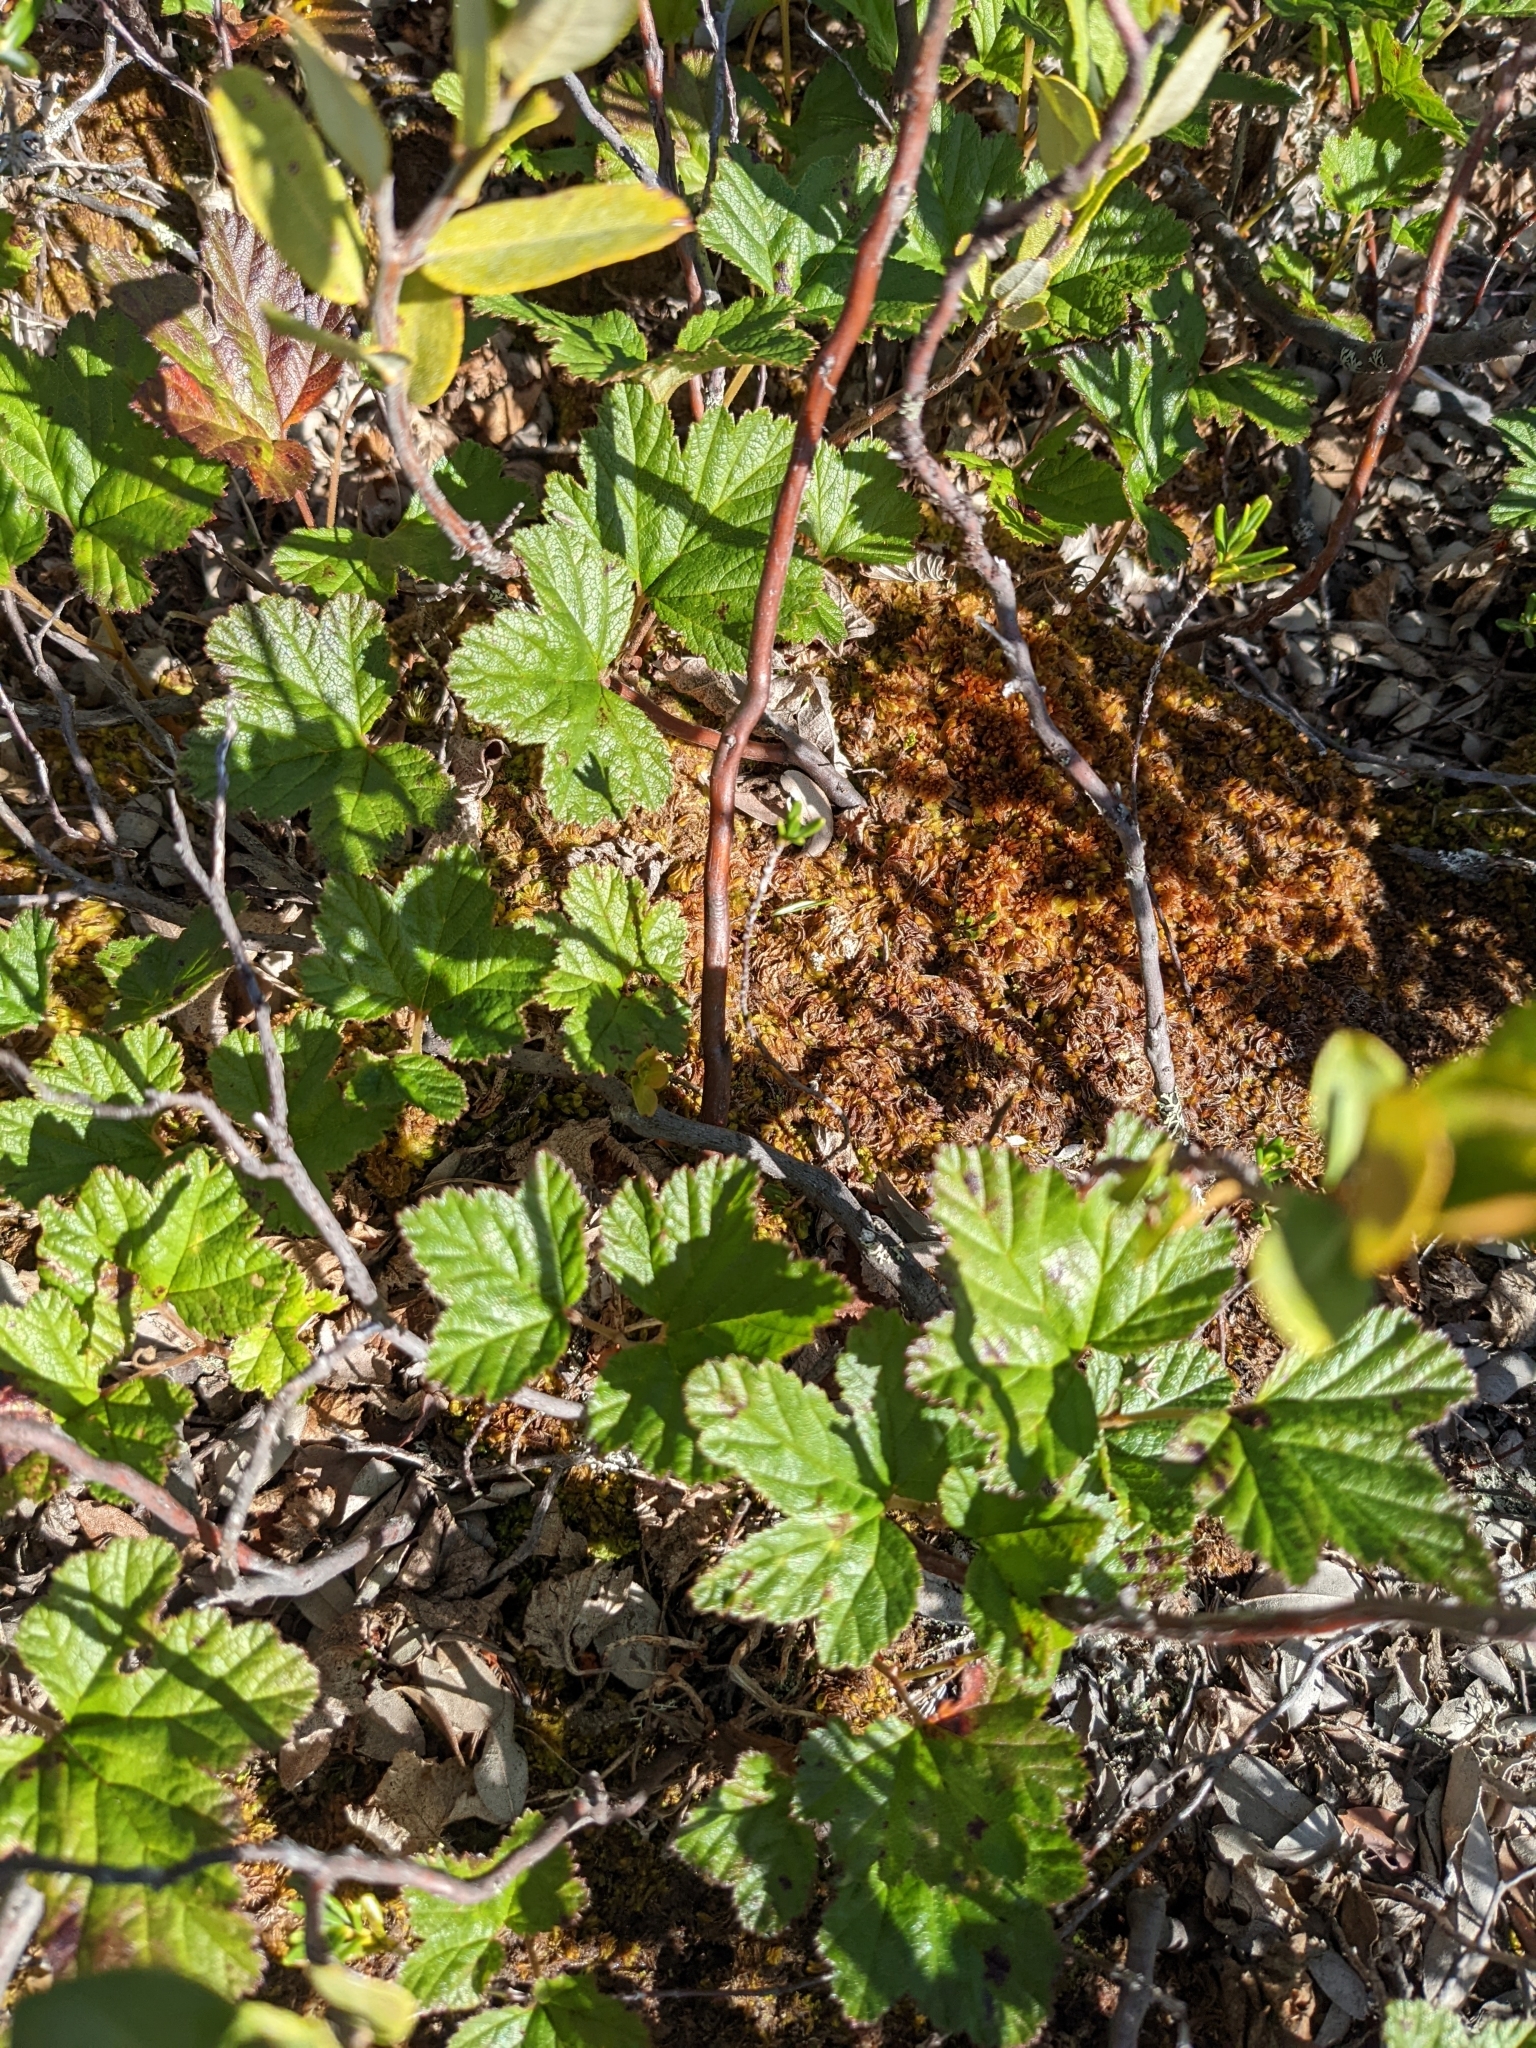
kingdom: Plantae
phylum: Tracheophyta
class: Magnoliopsida
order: Rosales
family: Rosaceae
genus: Rubus
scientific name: Rubus chamaemorus
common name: Cloudberry
